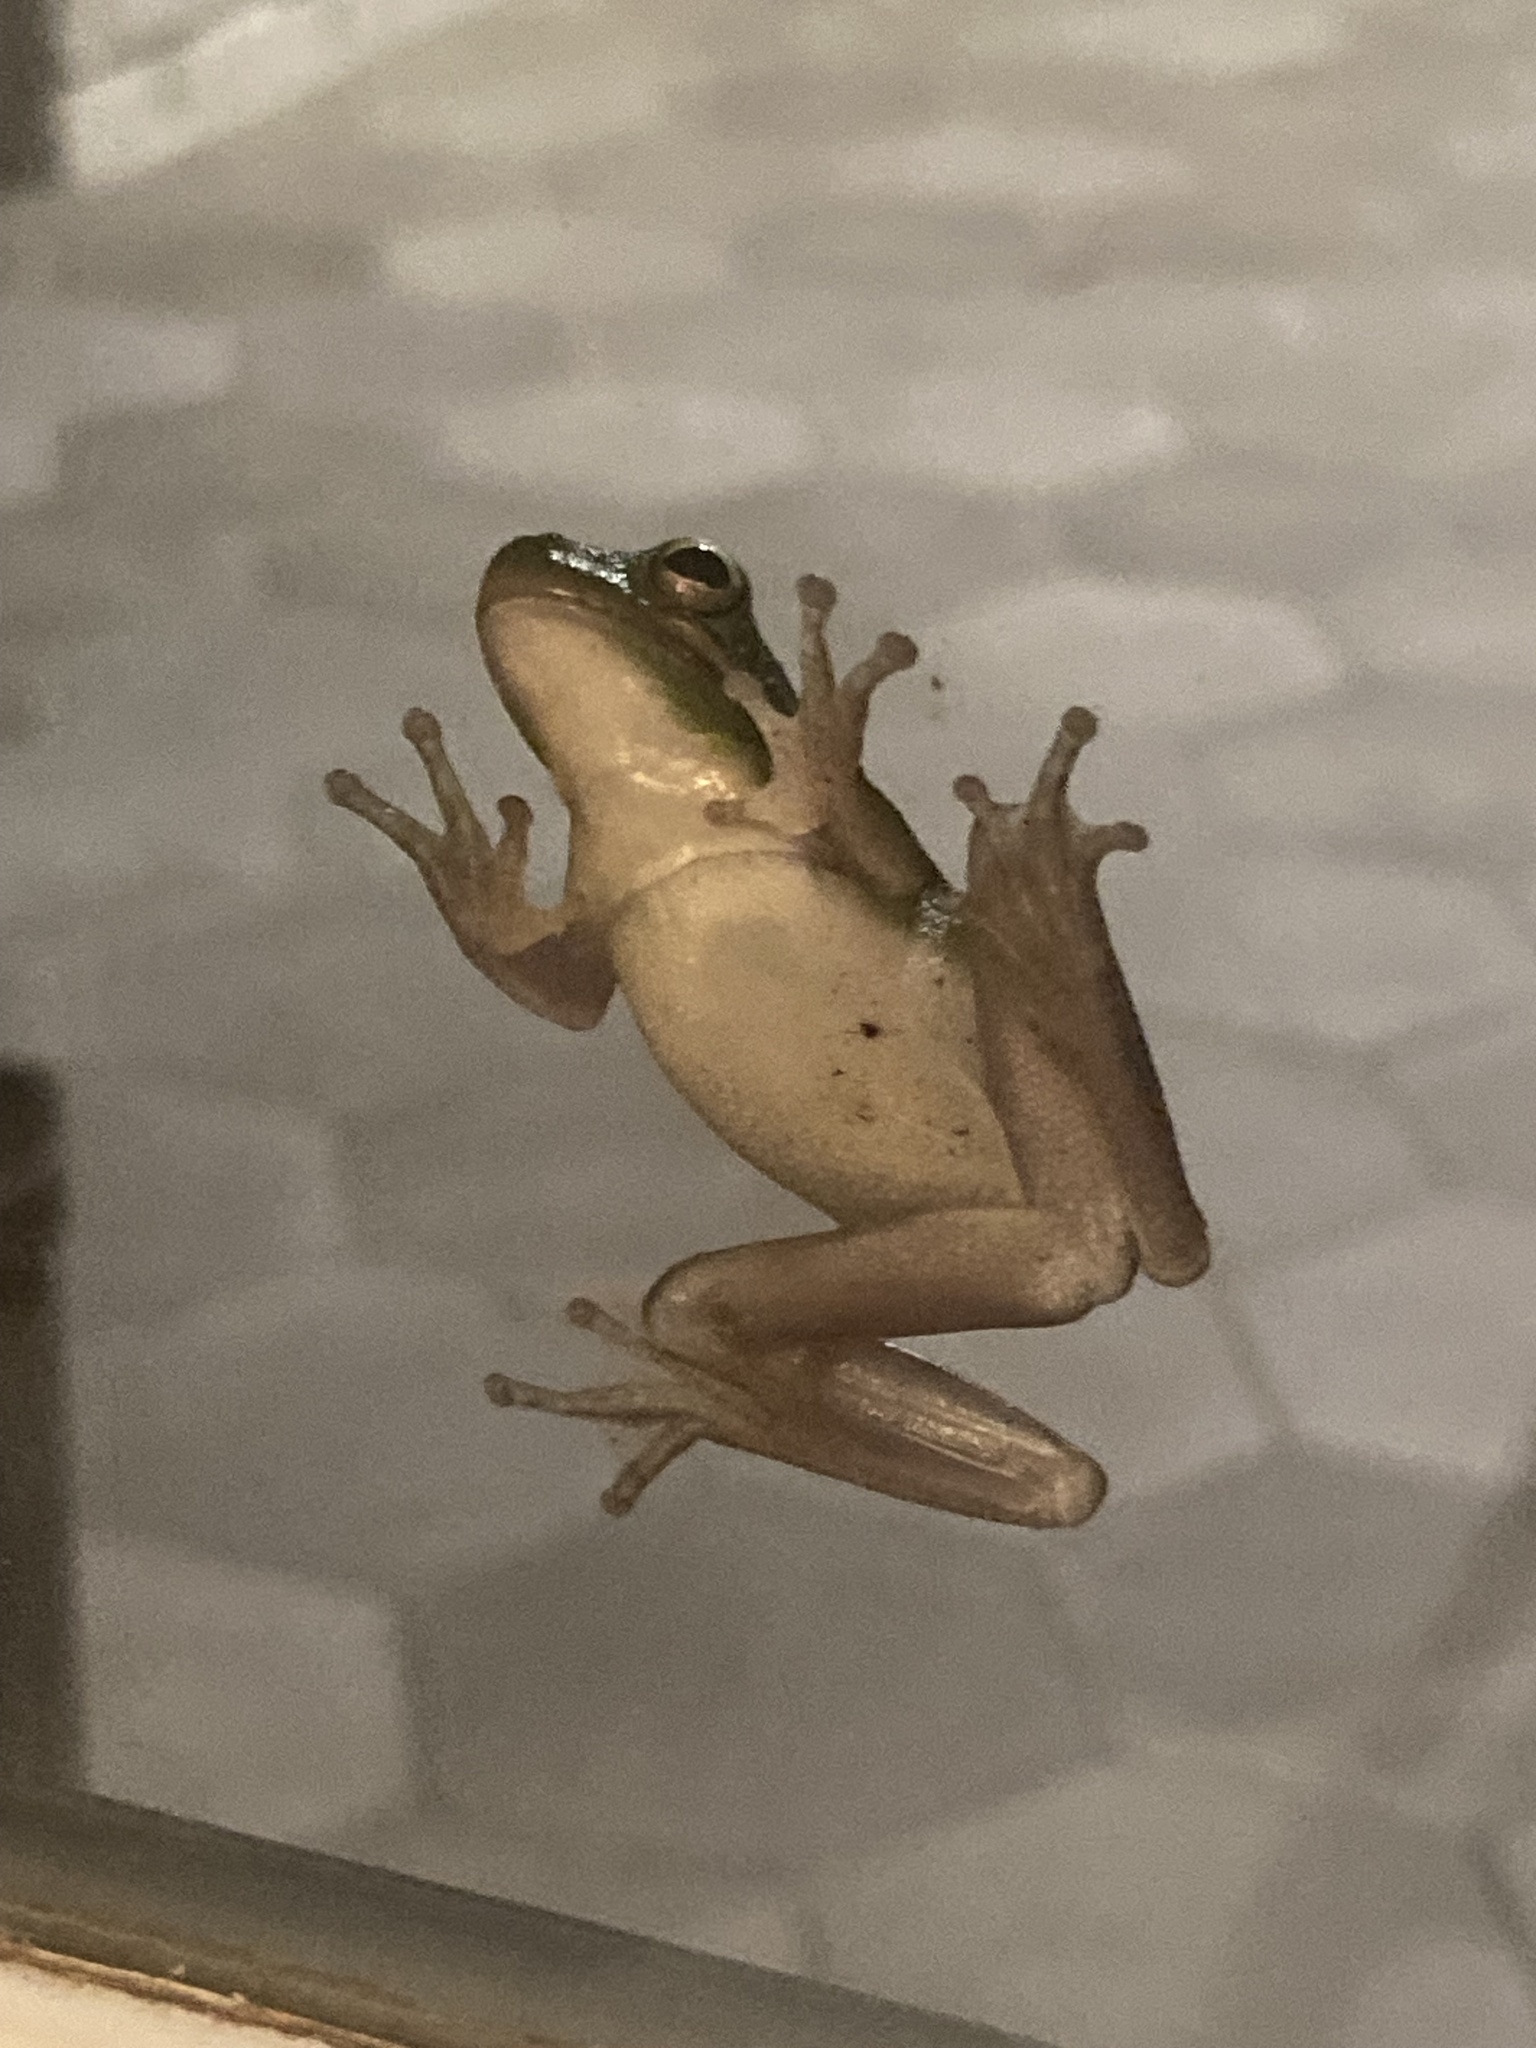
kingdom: Animalia
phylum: Chordata
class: Amphibia
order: Anura
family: Hylidae
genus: Dryophytes
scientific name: Dryophytes cinereus
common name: Green treefrog
